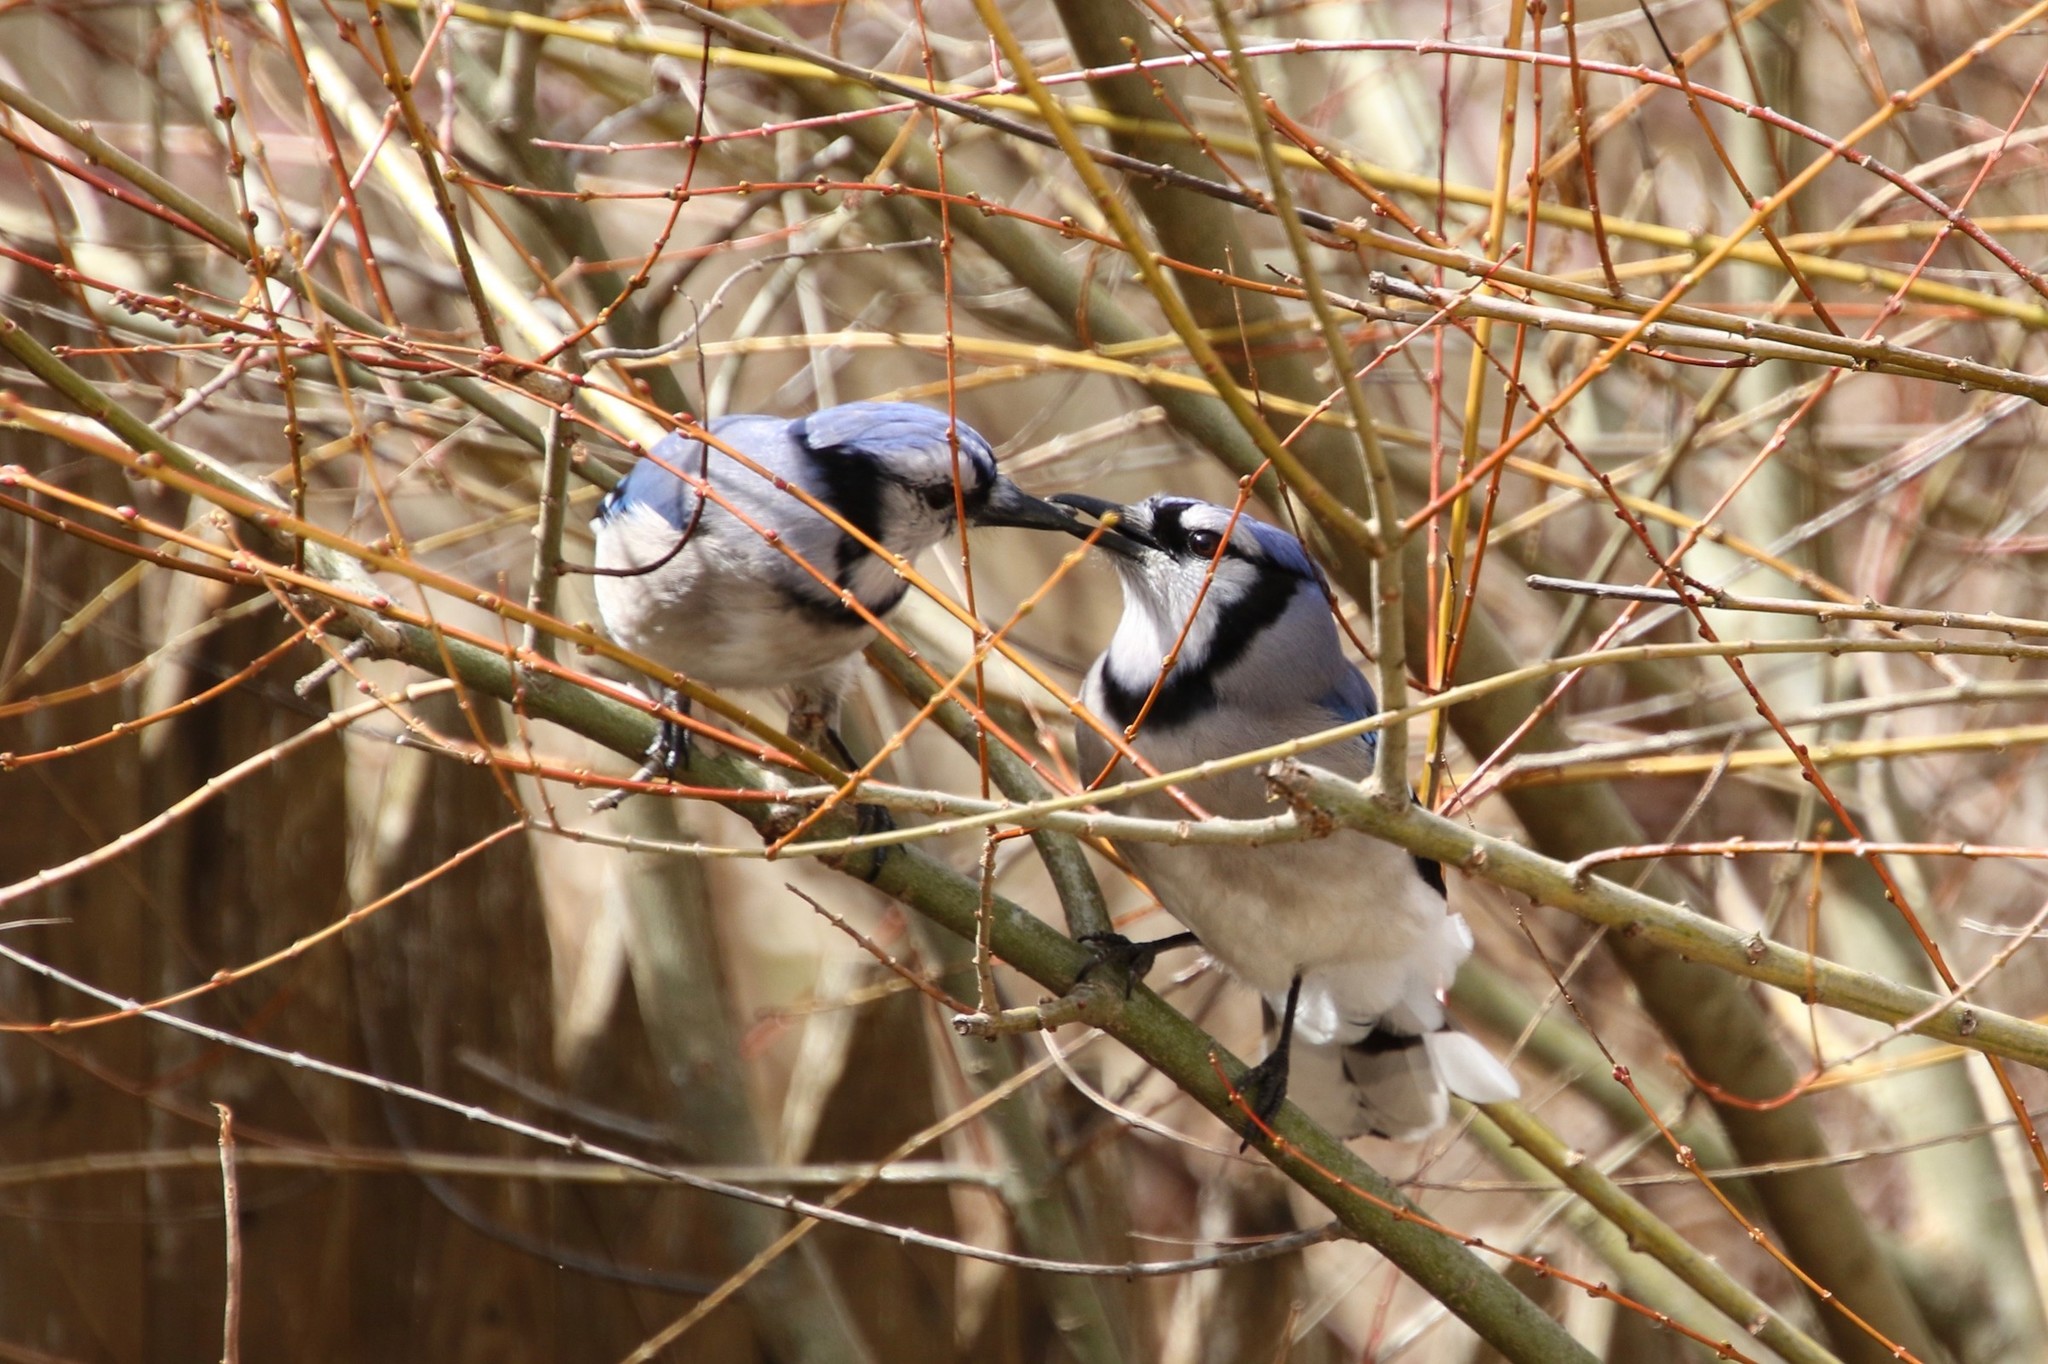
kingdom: Animalia
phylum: Chordata
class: Aves
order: Passeriformes
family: Corvidae
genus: Cyanocitta
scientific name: Cyanocitta cristata
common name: Blue jay
